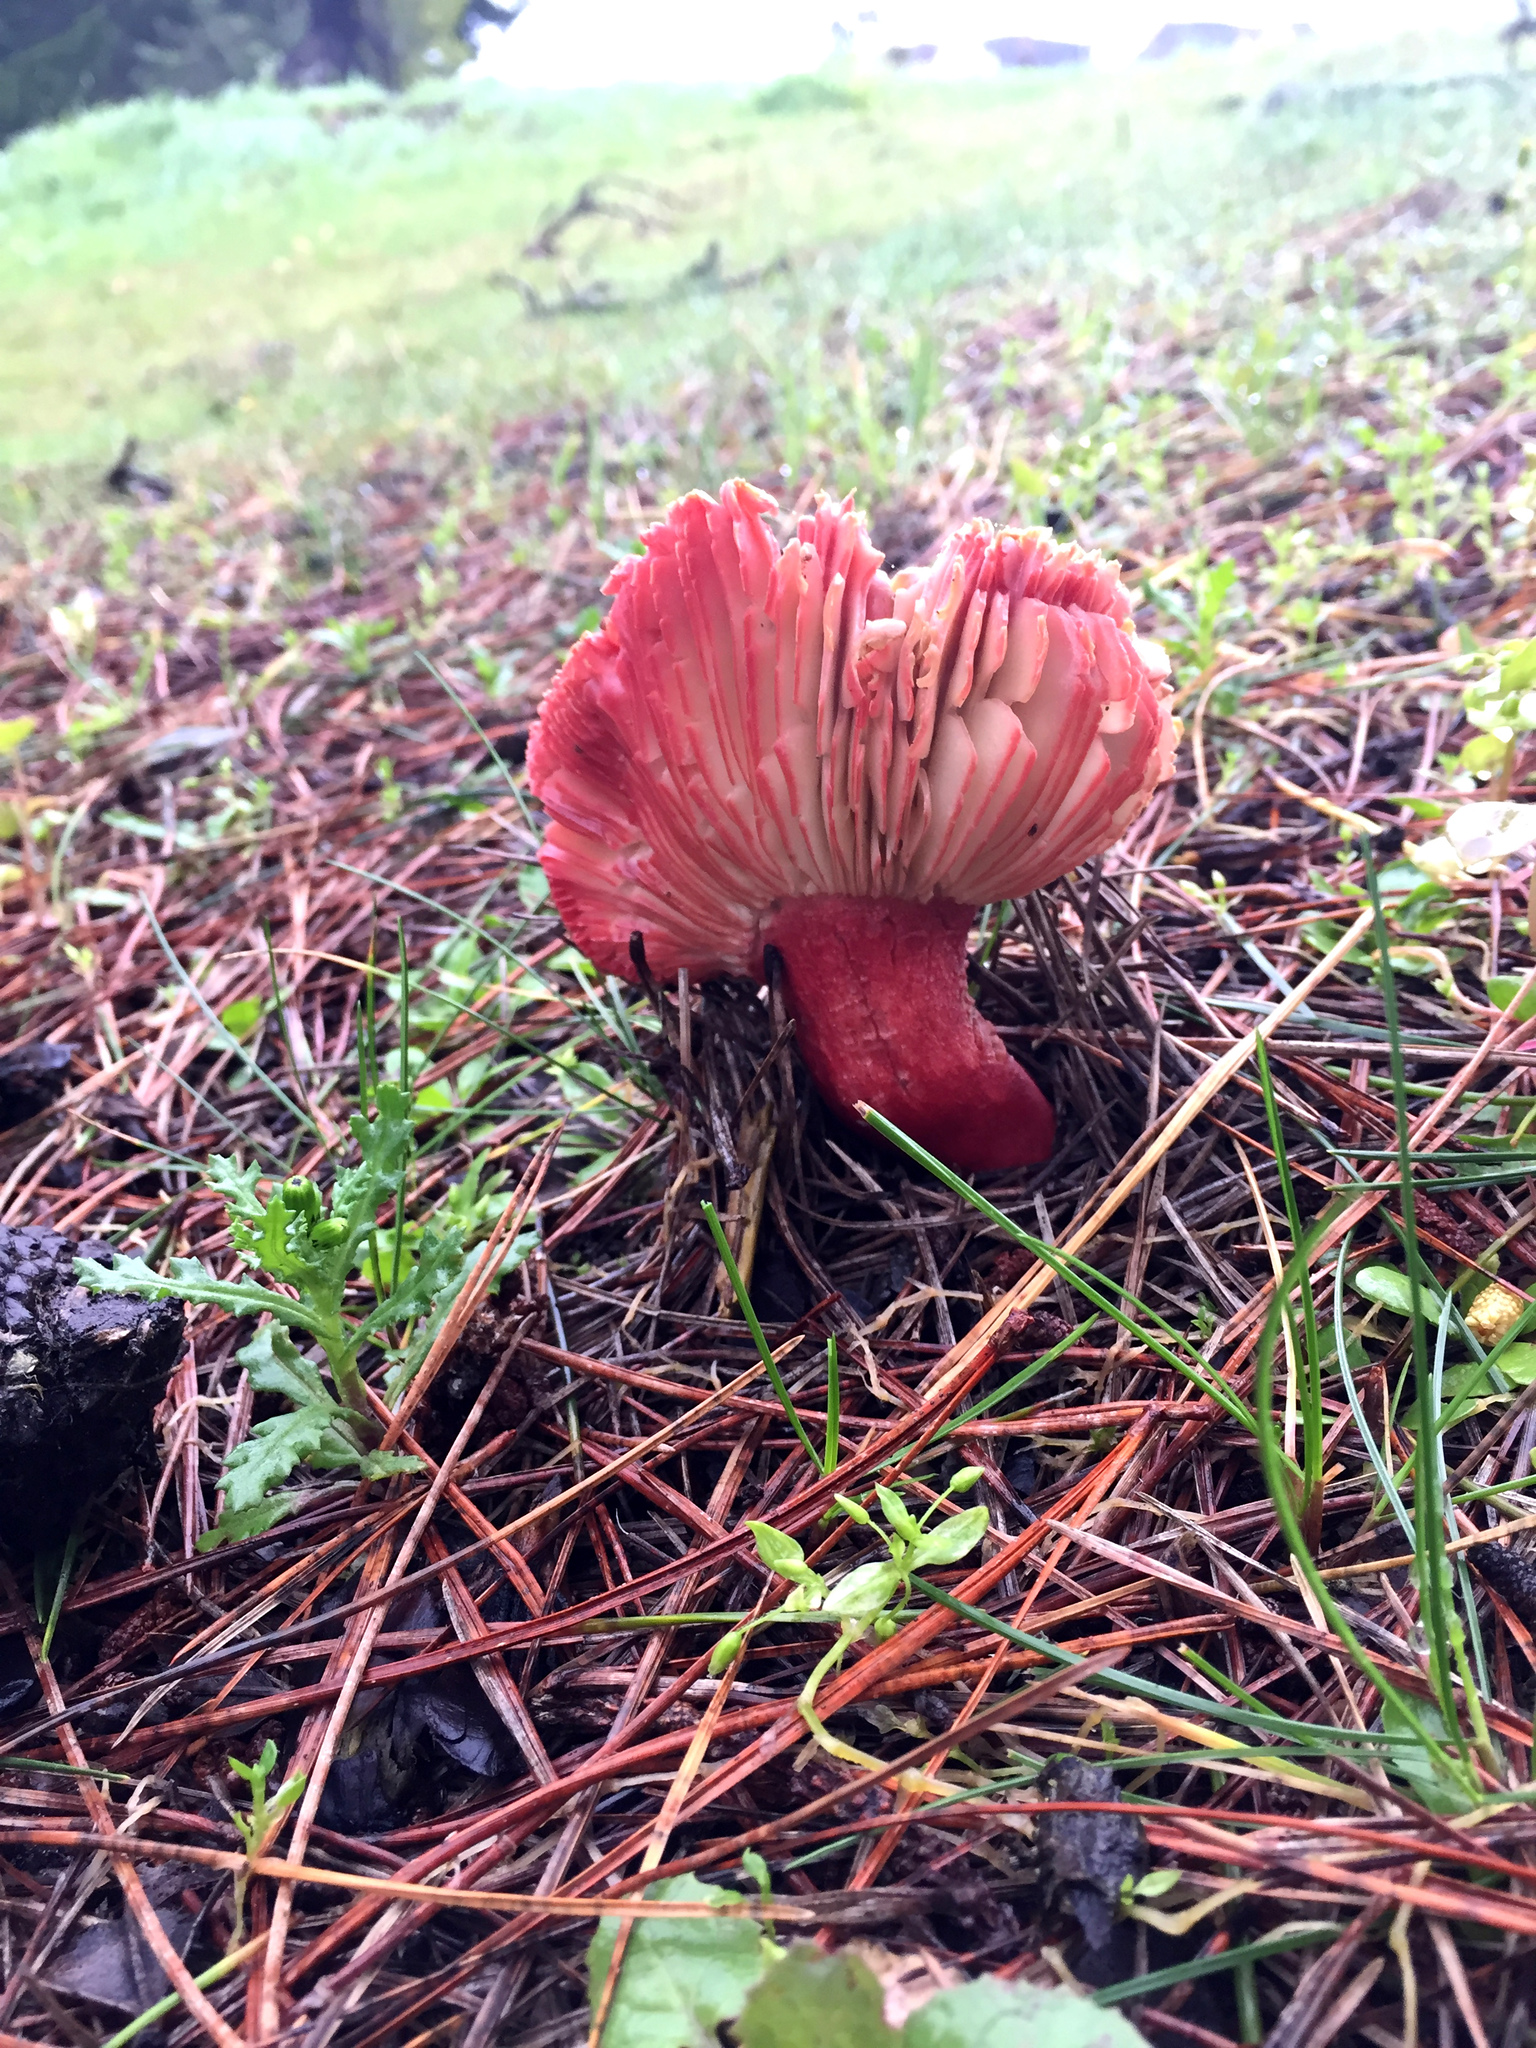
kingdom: Fungi
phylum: Basidiomycota
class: Agaricomycetes
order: Russulales
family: Russulaceae
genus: Russula
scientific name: Russula sanguinea
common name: Bloody brittlegill
